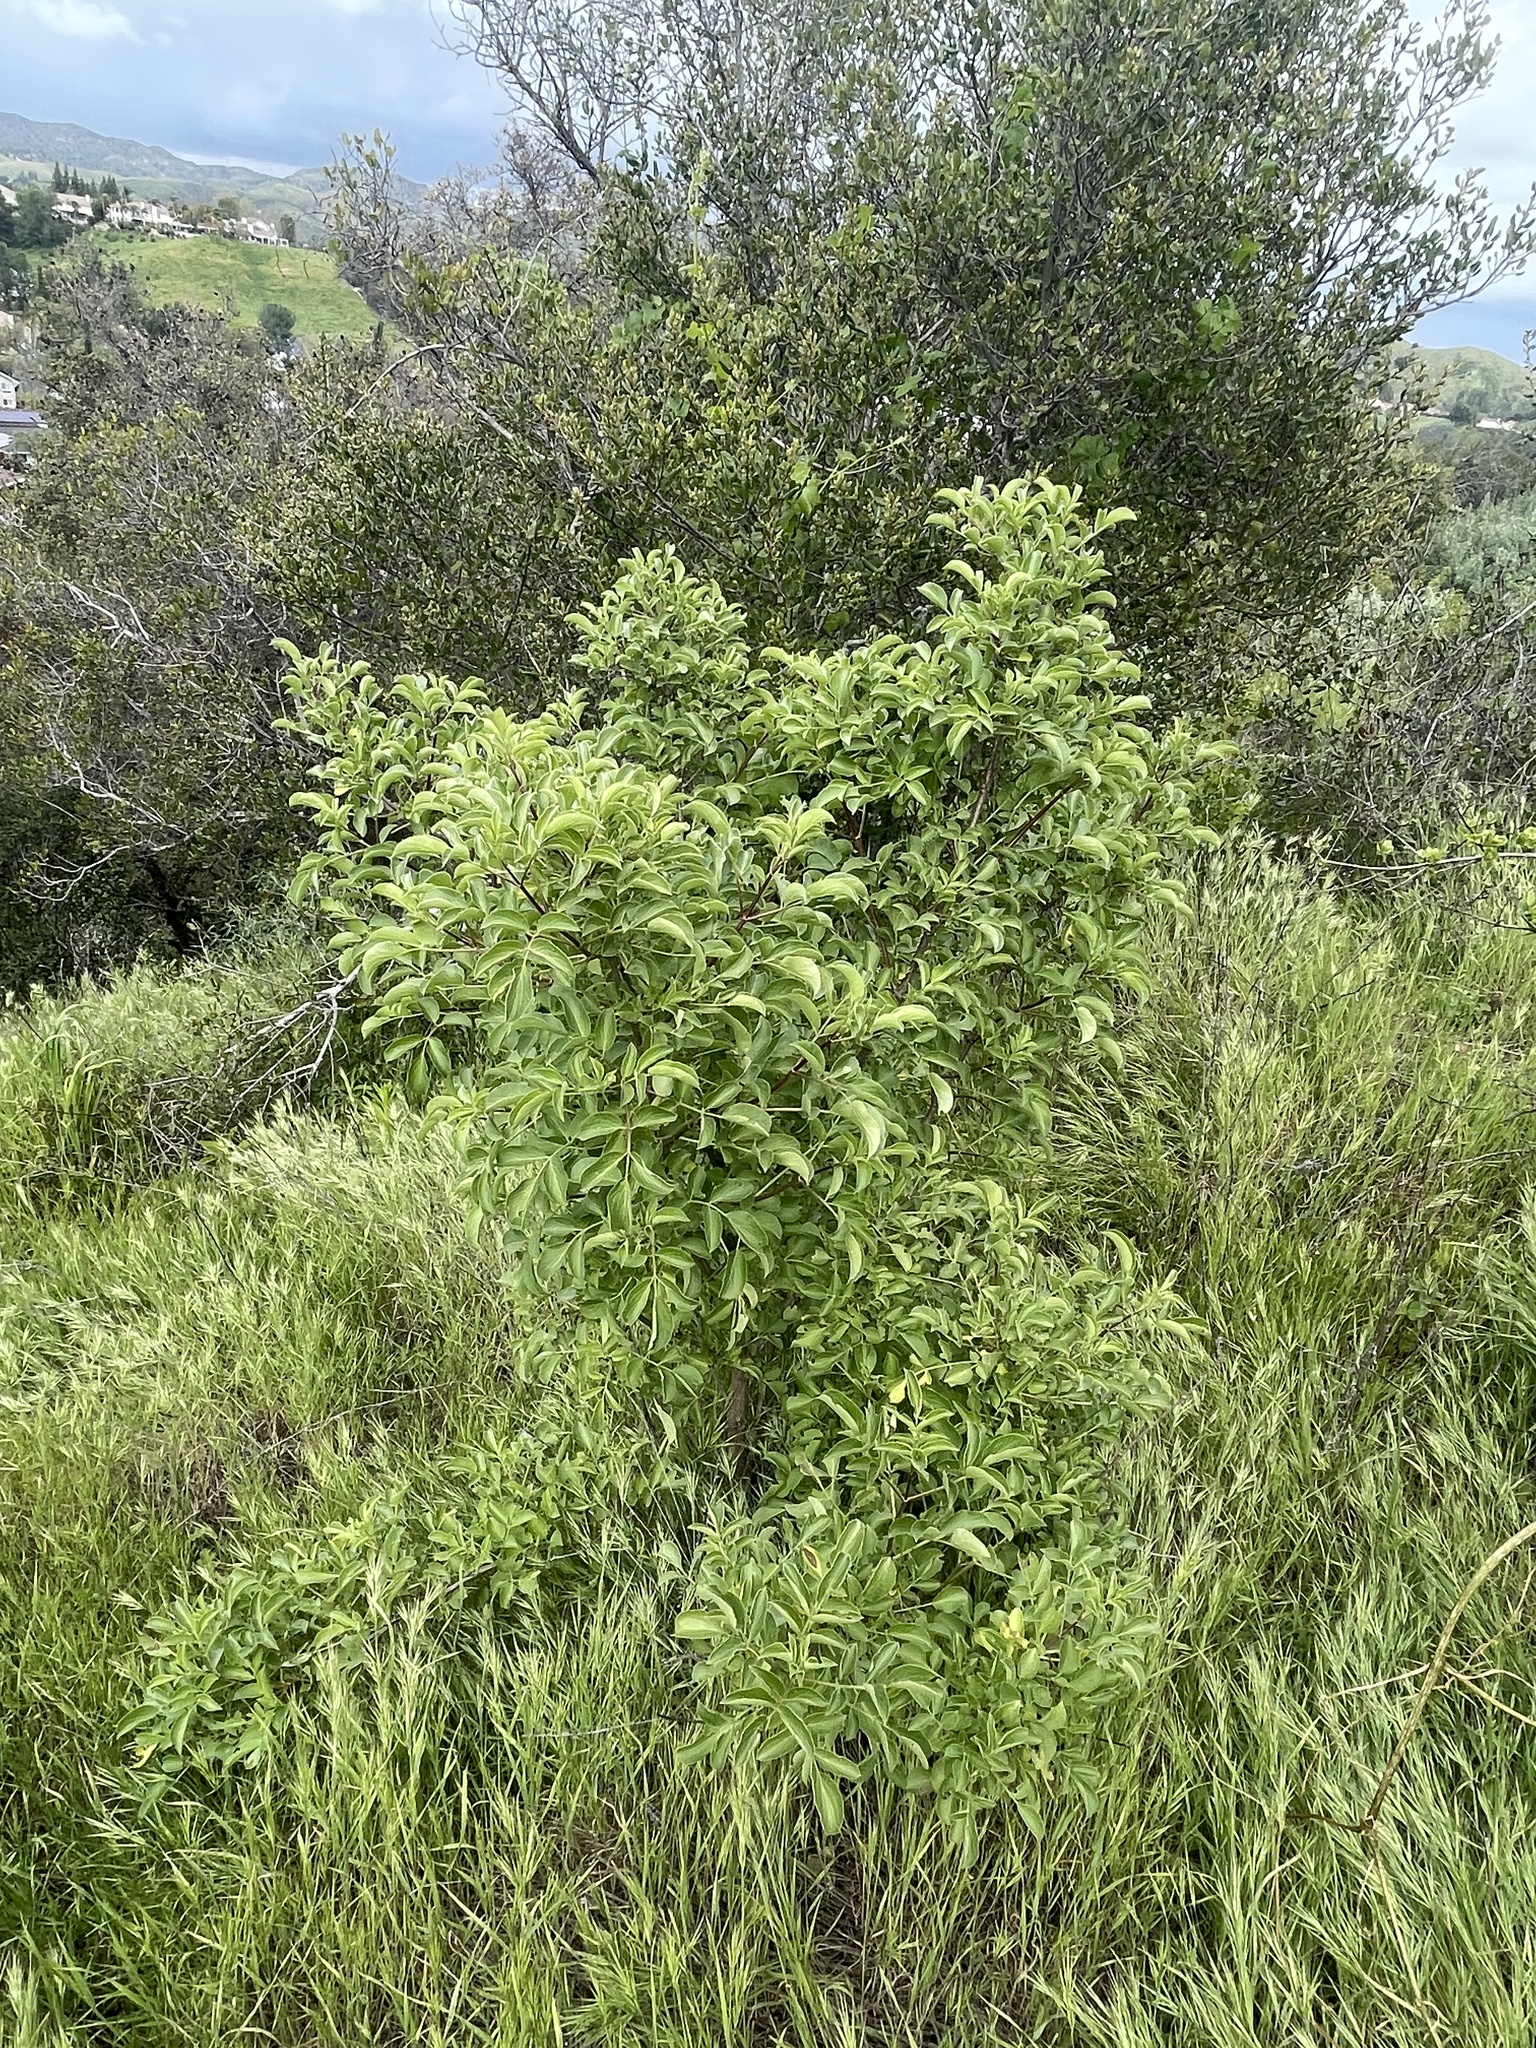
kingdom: Plantae
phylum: Tracheophyta
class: Magnoliopsida
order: Dipsacales
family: Viburnaceae
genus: Sambucus
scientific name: Sambucus cerulea
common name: Blue elder
